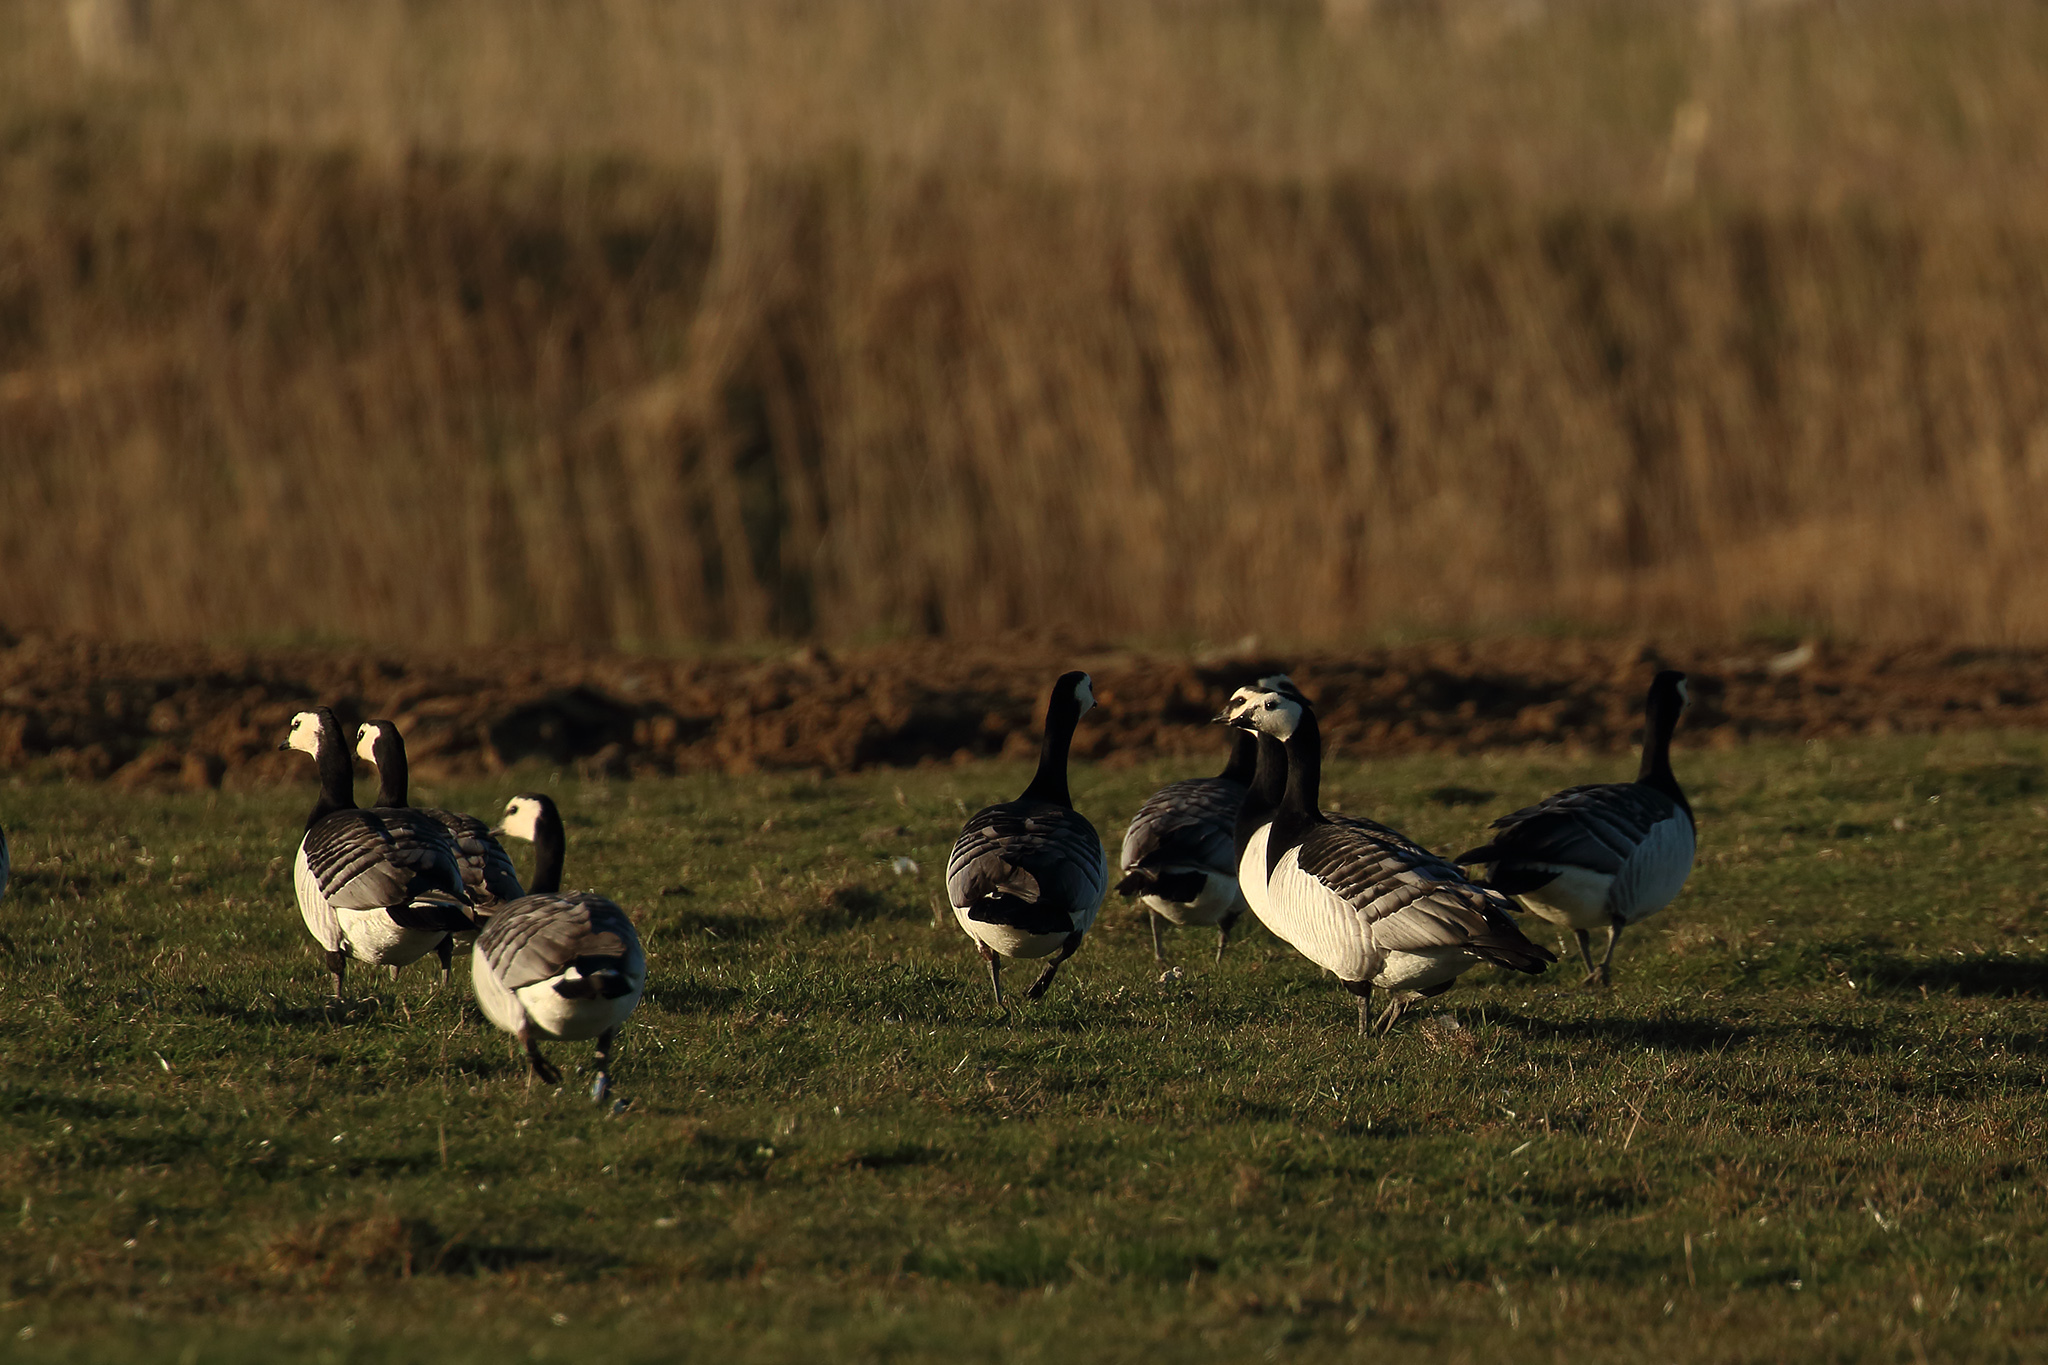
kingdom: Animalia
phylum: Chordata
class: Aves
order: Anseriformes
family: Anatidae
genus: Branta
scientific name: Branta leucopsis
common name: Barnacle goose
